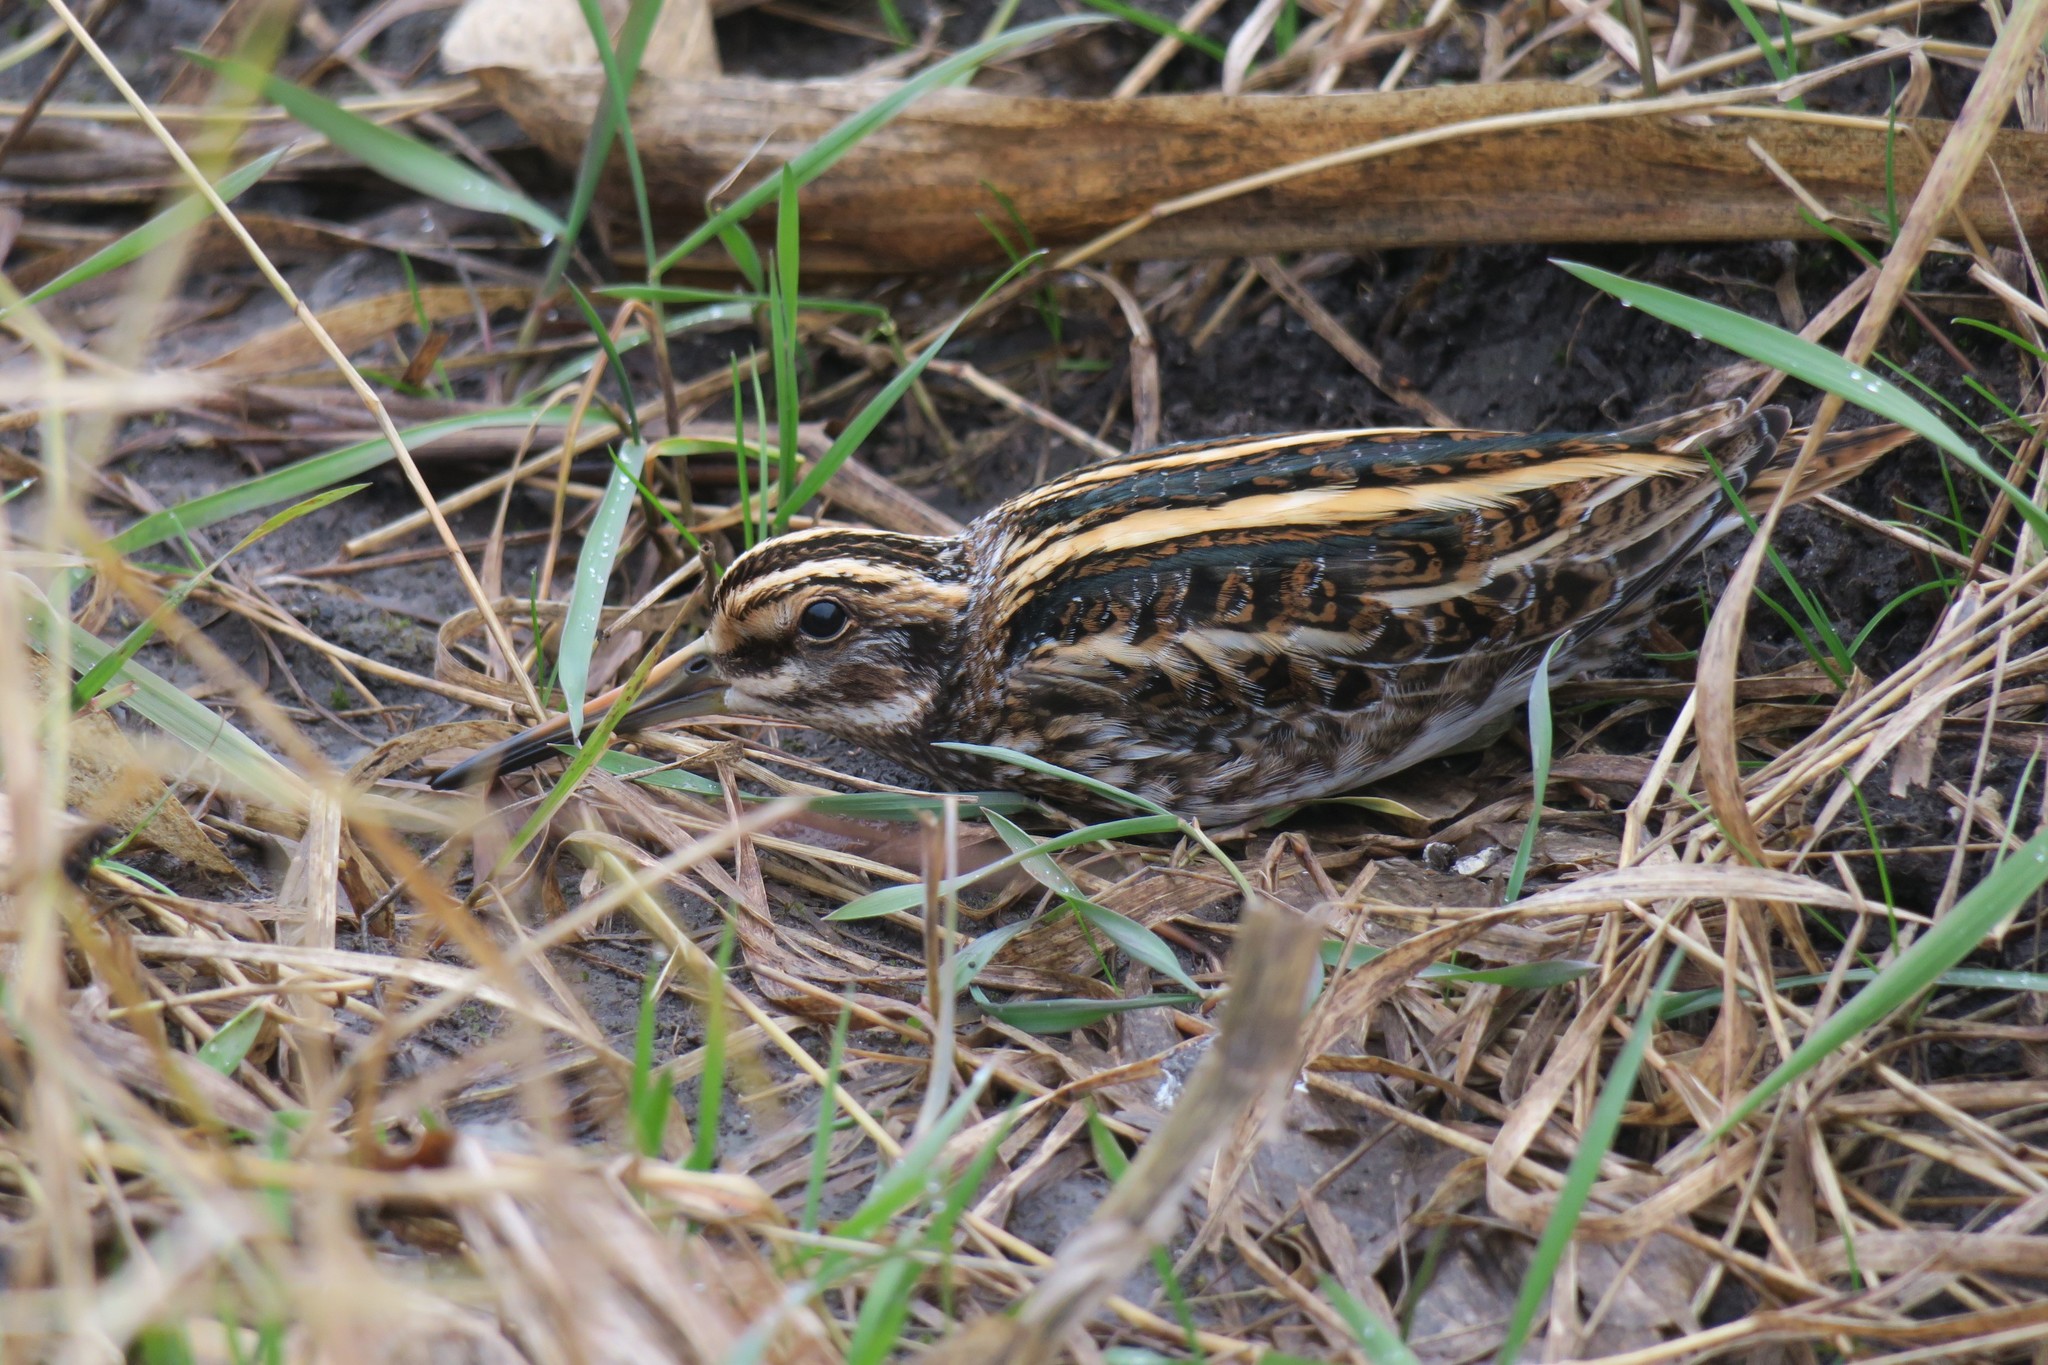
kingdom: Animalia
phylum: Chordata
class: Aves
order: Charadriiformes
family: Scolopacidae
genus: Lymnocryptes
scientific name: Lymnocryptes minimus
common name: Jack snipe
